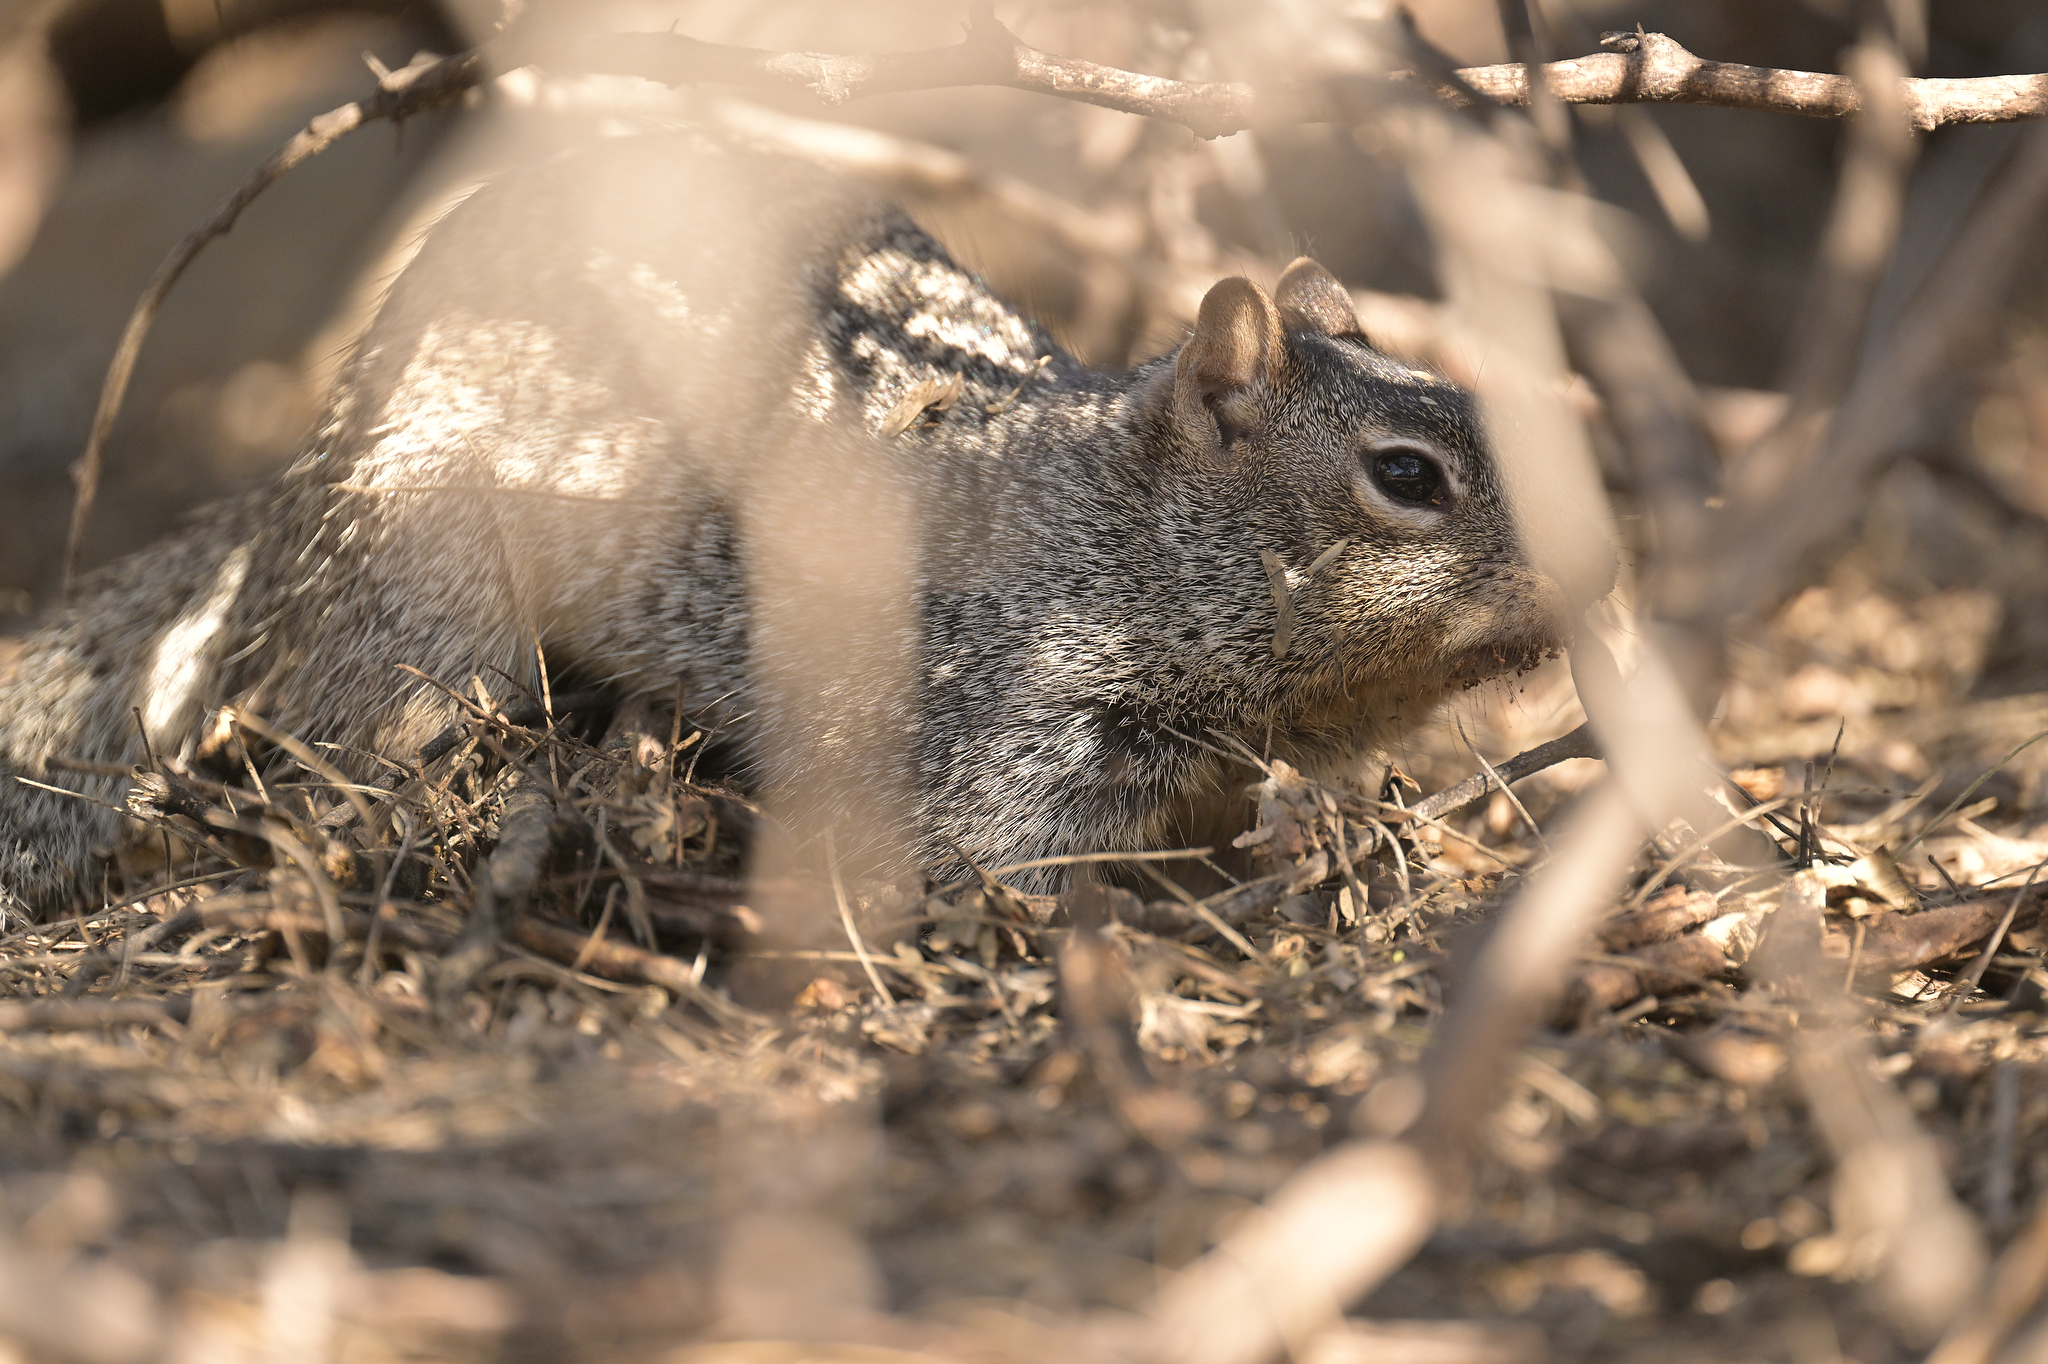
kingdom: Animalia
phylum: Chordata
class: Mammalia
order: Rodentia
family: Sciuridae
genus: Otospermophilus
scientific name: Otospermophilus variegatus
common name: Rock squirrel
